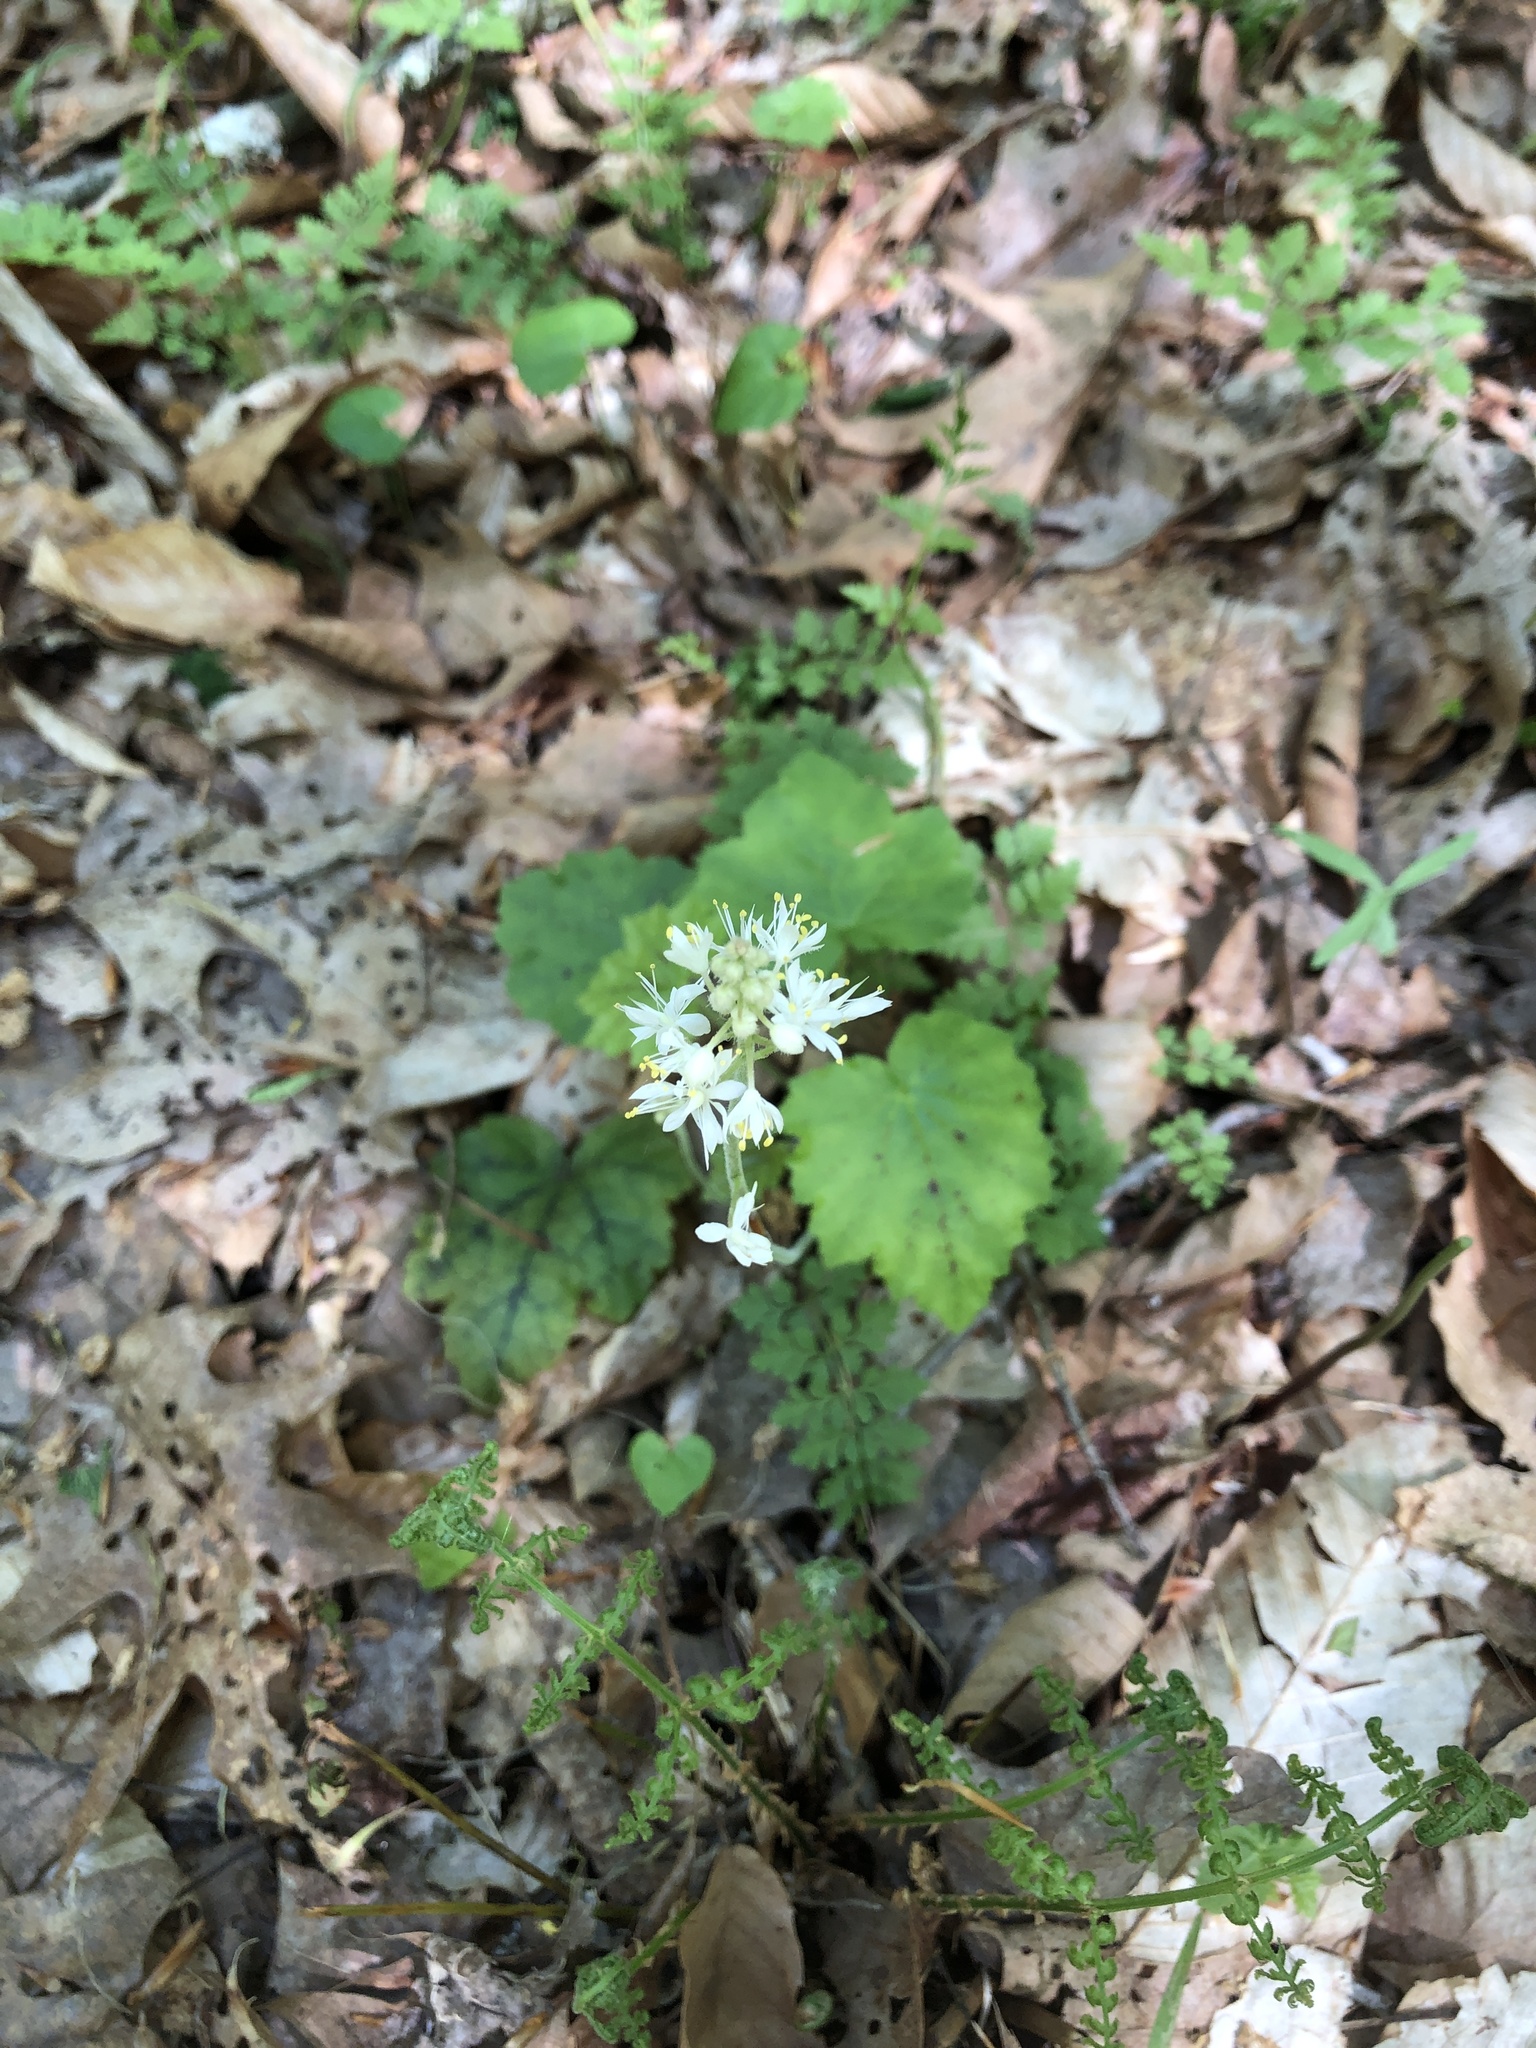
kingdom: Plantae
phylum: Tracheophyta
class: Magnoliopsida
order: Saxifragales
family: Saxifragaceae
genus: Tiarella
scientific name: Tiarella stolonifera
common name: Stoloniferous foamflower
